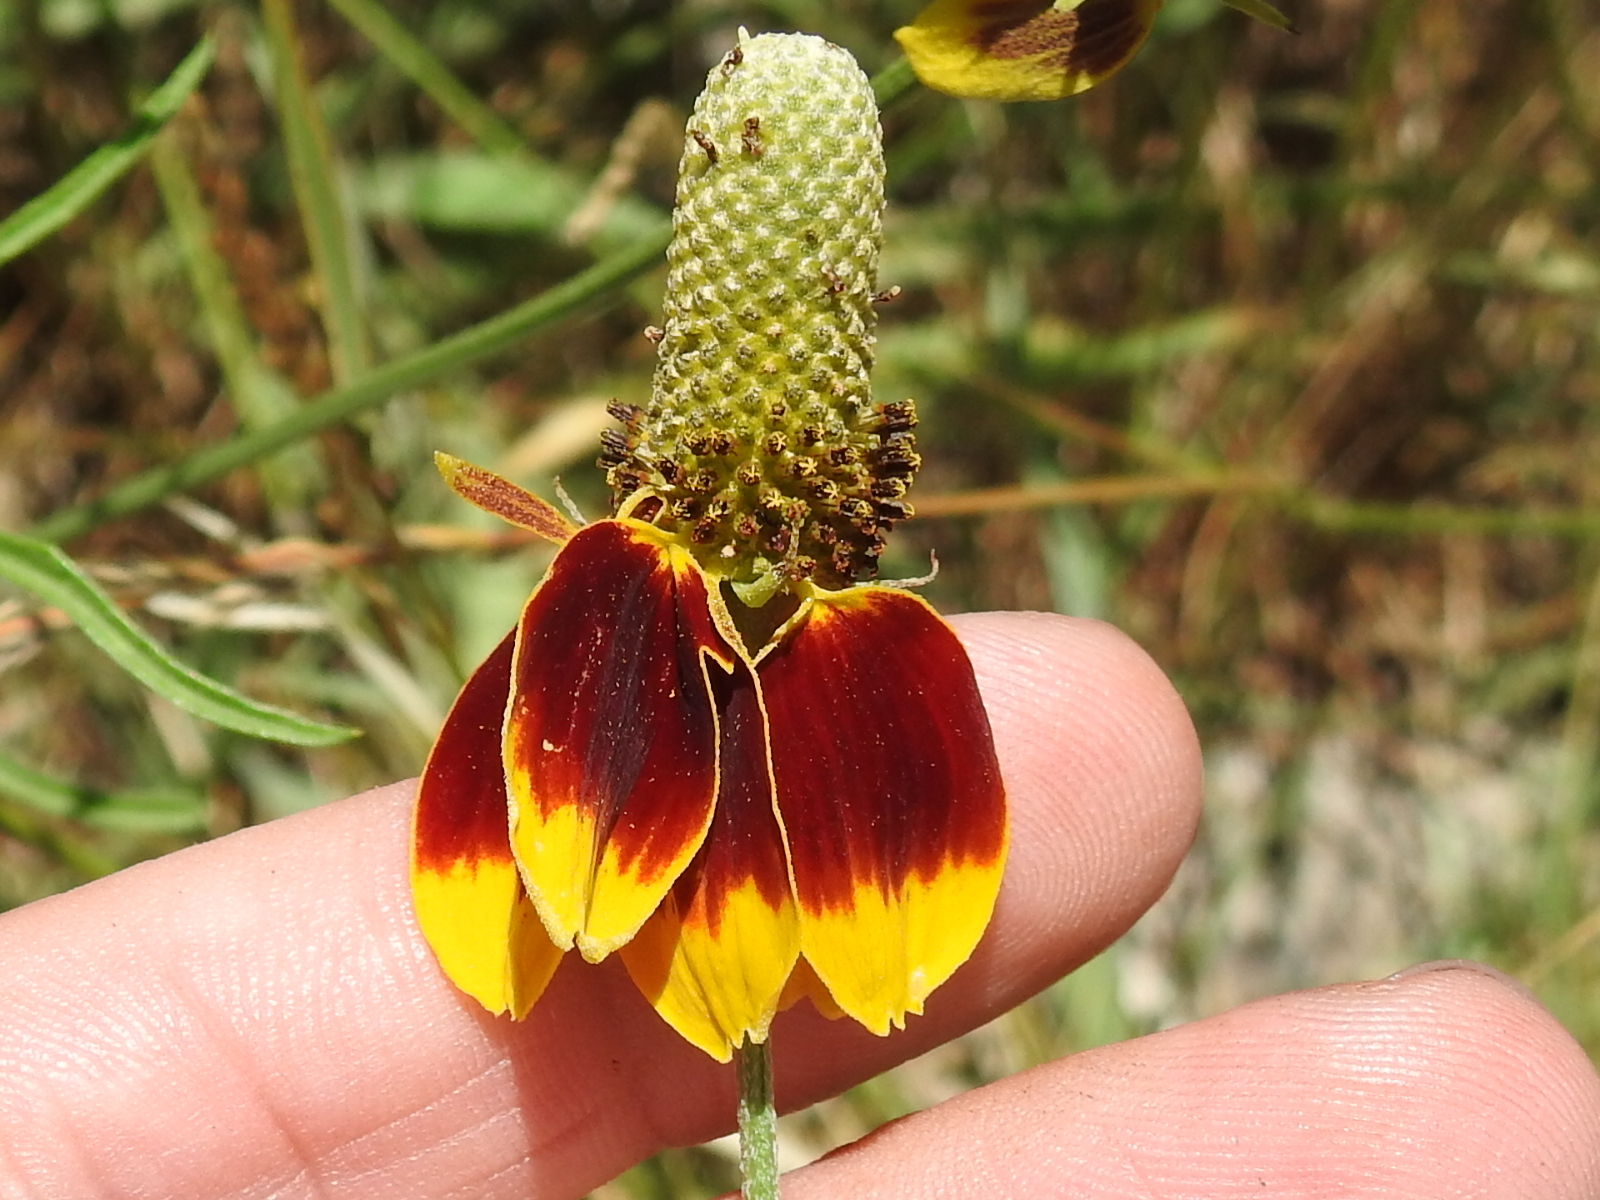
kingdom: Plantae
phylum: Tracheophyta
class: Magnoliopsida
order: Asterales
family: Asteraceae
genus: Ratibida
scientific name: Ratibida columnifera
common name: Prairie coneflower
